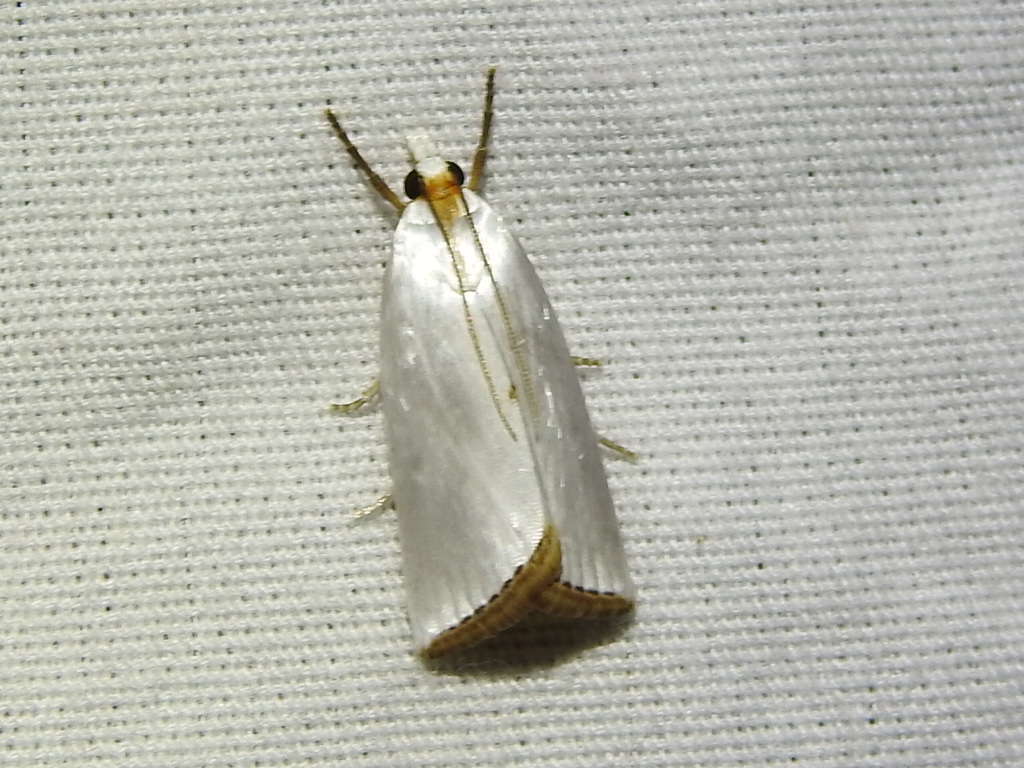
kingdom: Animalia
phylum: Arthropoda
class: Insecta
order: Lepidoptera
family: Crambidae
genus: Argyria
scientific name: Argyria nivalis
